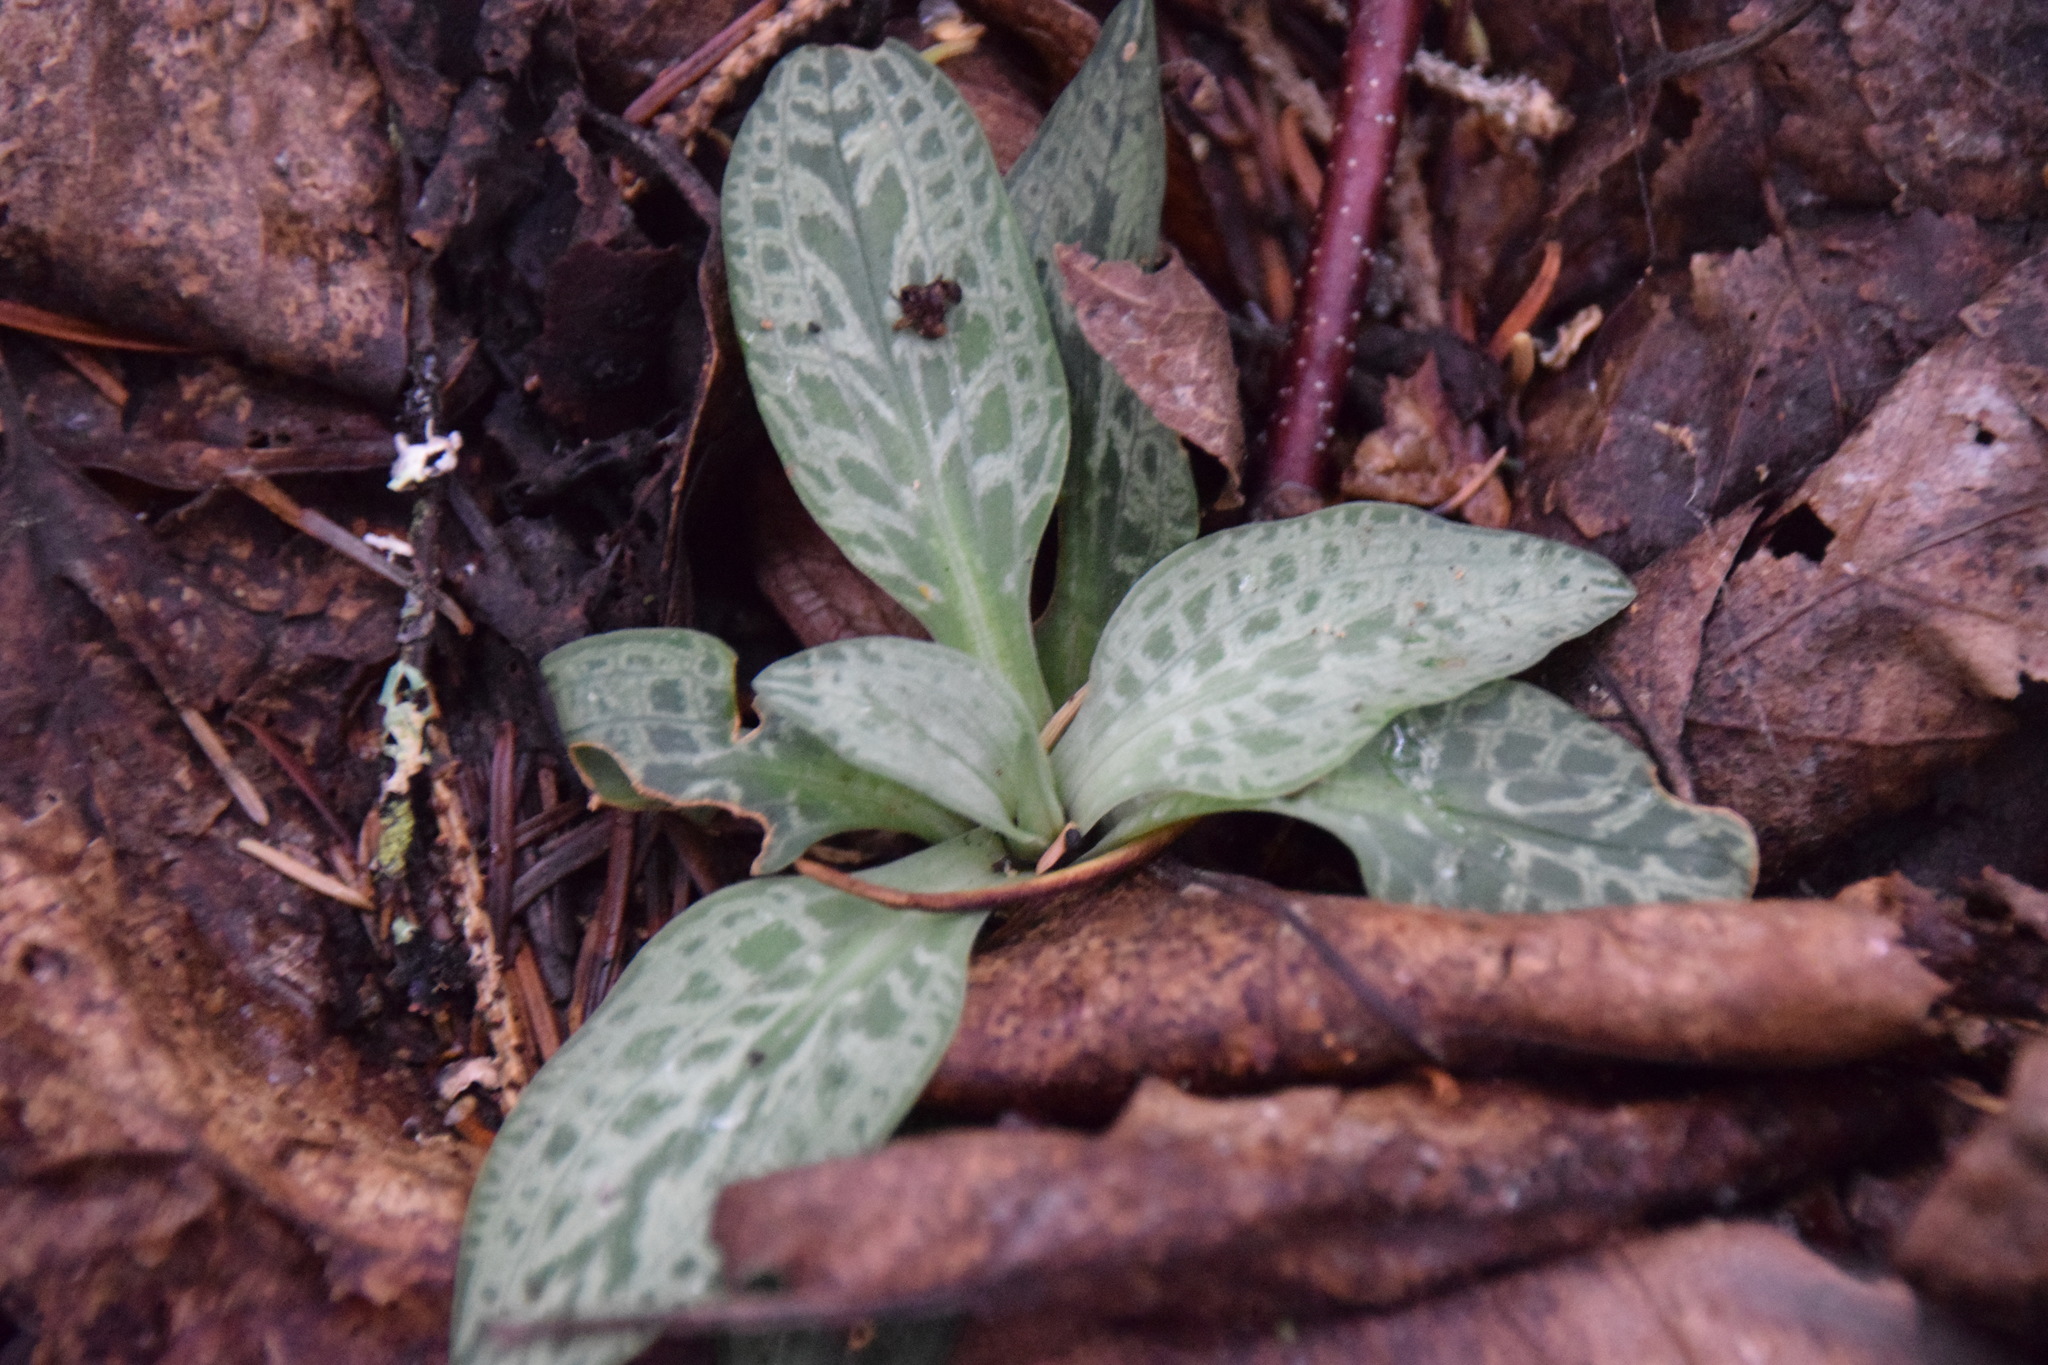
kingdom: Plantae
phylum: Tracheophyta
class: Liliopsida
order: Asparagales
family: Orchidaceae
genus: Goodyera
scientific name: Goodyera tesselata
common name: Checkered rattlesnake-plantain
